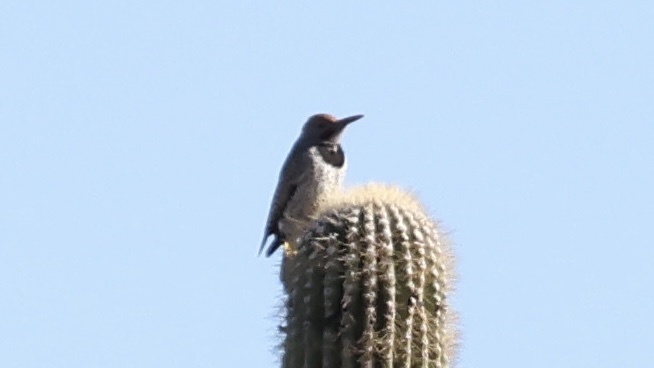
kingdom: Animalia
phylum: Chordata
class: Aves
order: Piciformes
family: Picidae
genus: Colaptes
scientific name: Colaptes chrysoides
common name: Gilded flicker
